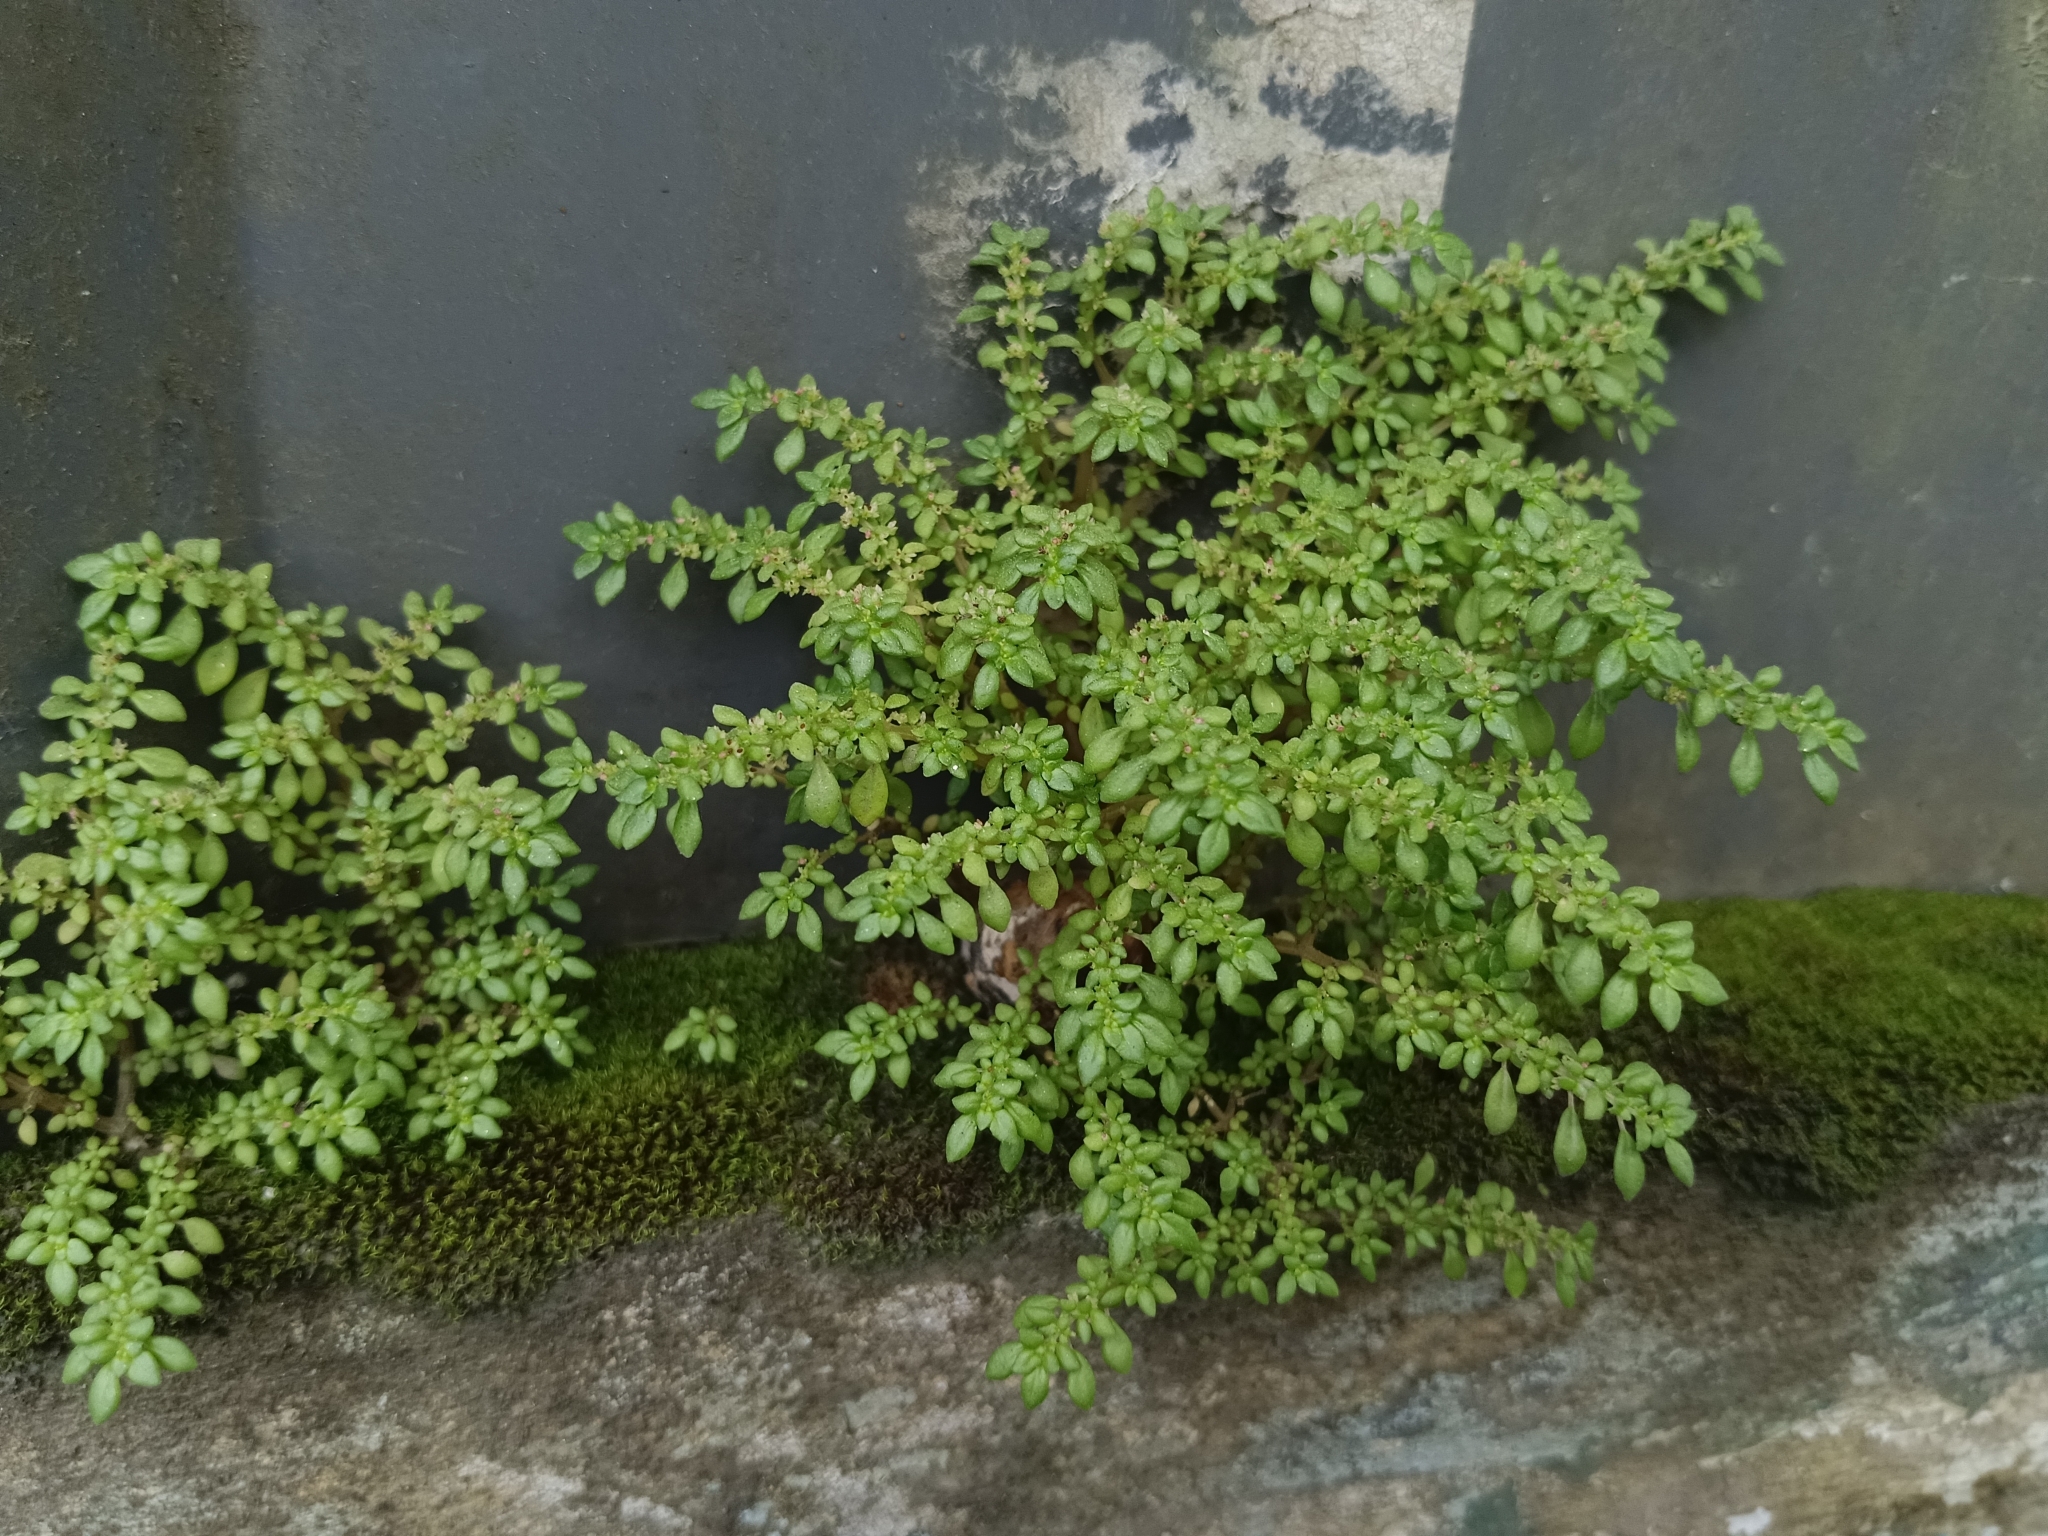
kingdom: Plantae
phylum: Tracheophyta
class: Magnoliopsida
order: Rosales
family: Urticaceae
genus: Pilea
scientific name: Pilea microphylla
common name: Artillery-plant
